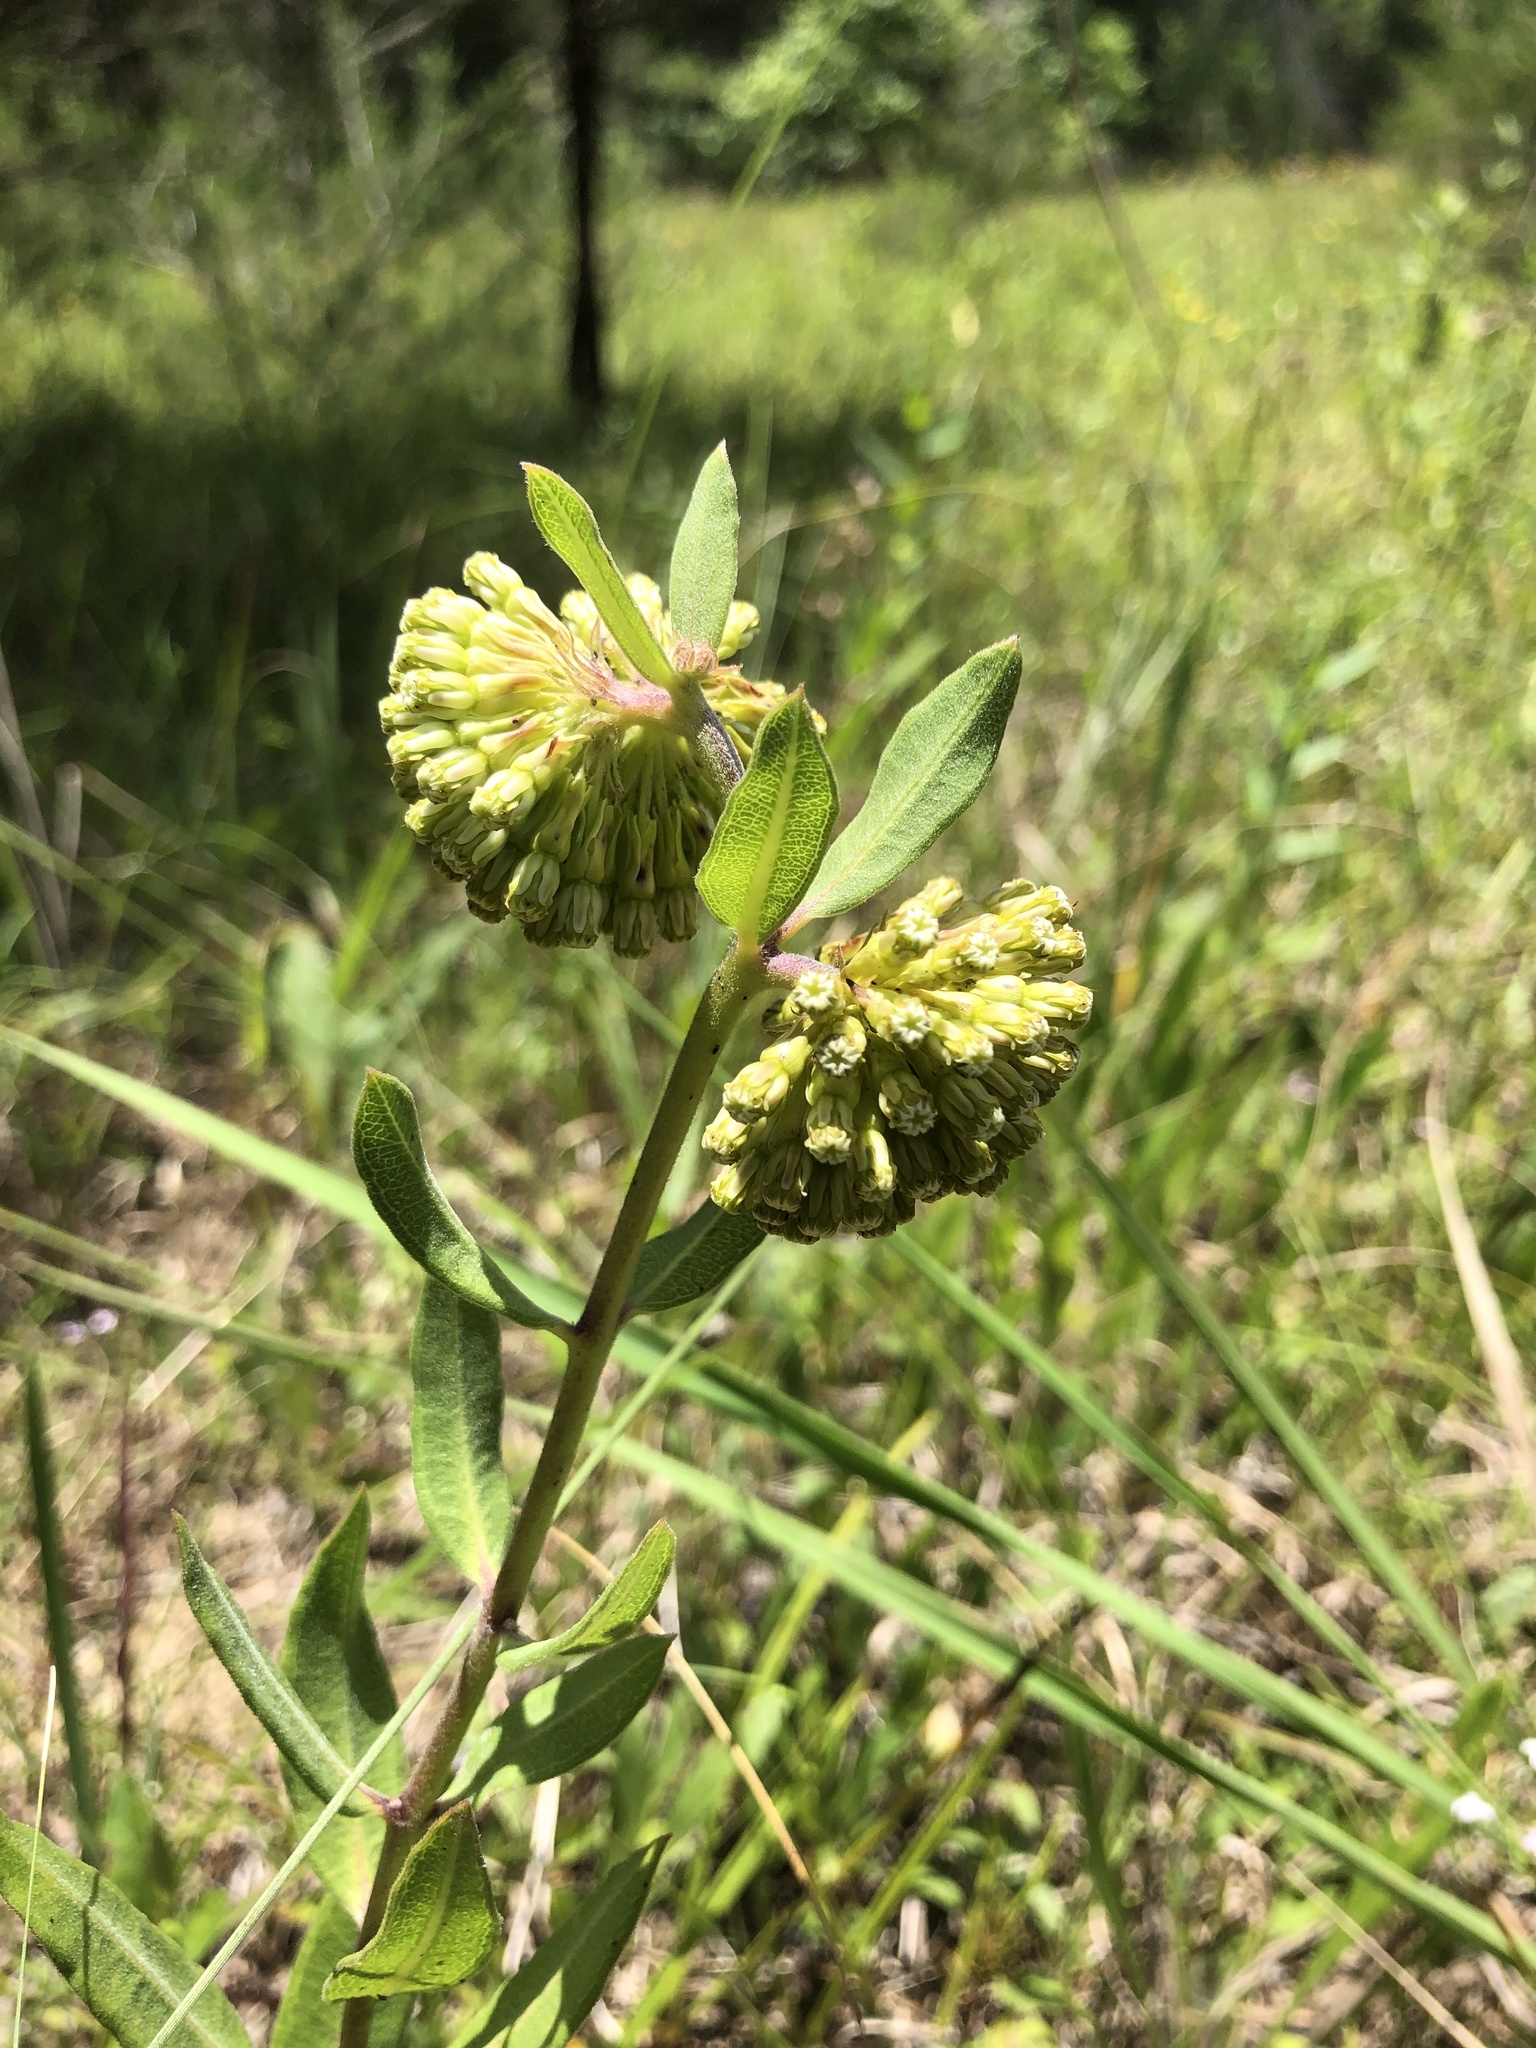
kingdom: Plantae
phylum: Tracheophyta
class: Magnoliopsida
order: Gentianales
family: Apocynaceae
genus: Asclepias
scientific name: Asclepias viridiflora
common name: Green comet milkweed
